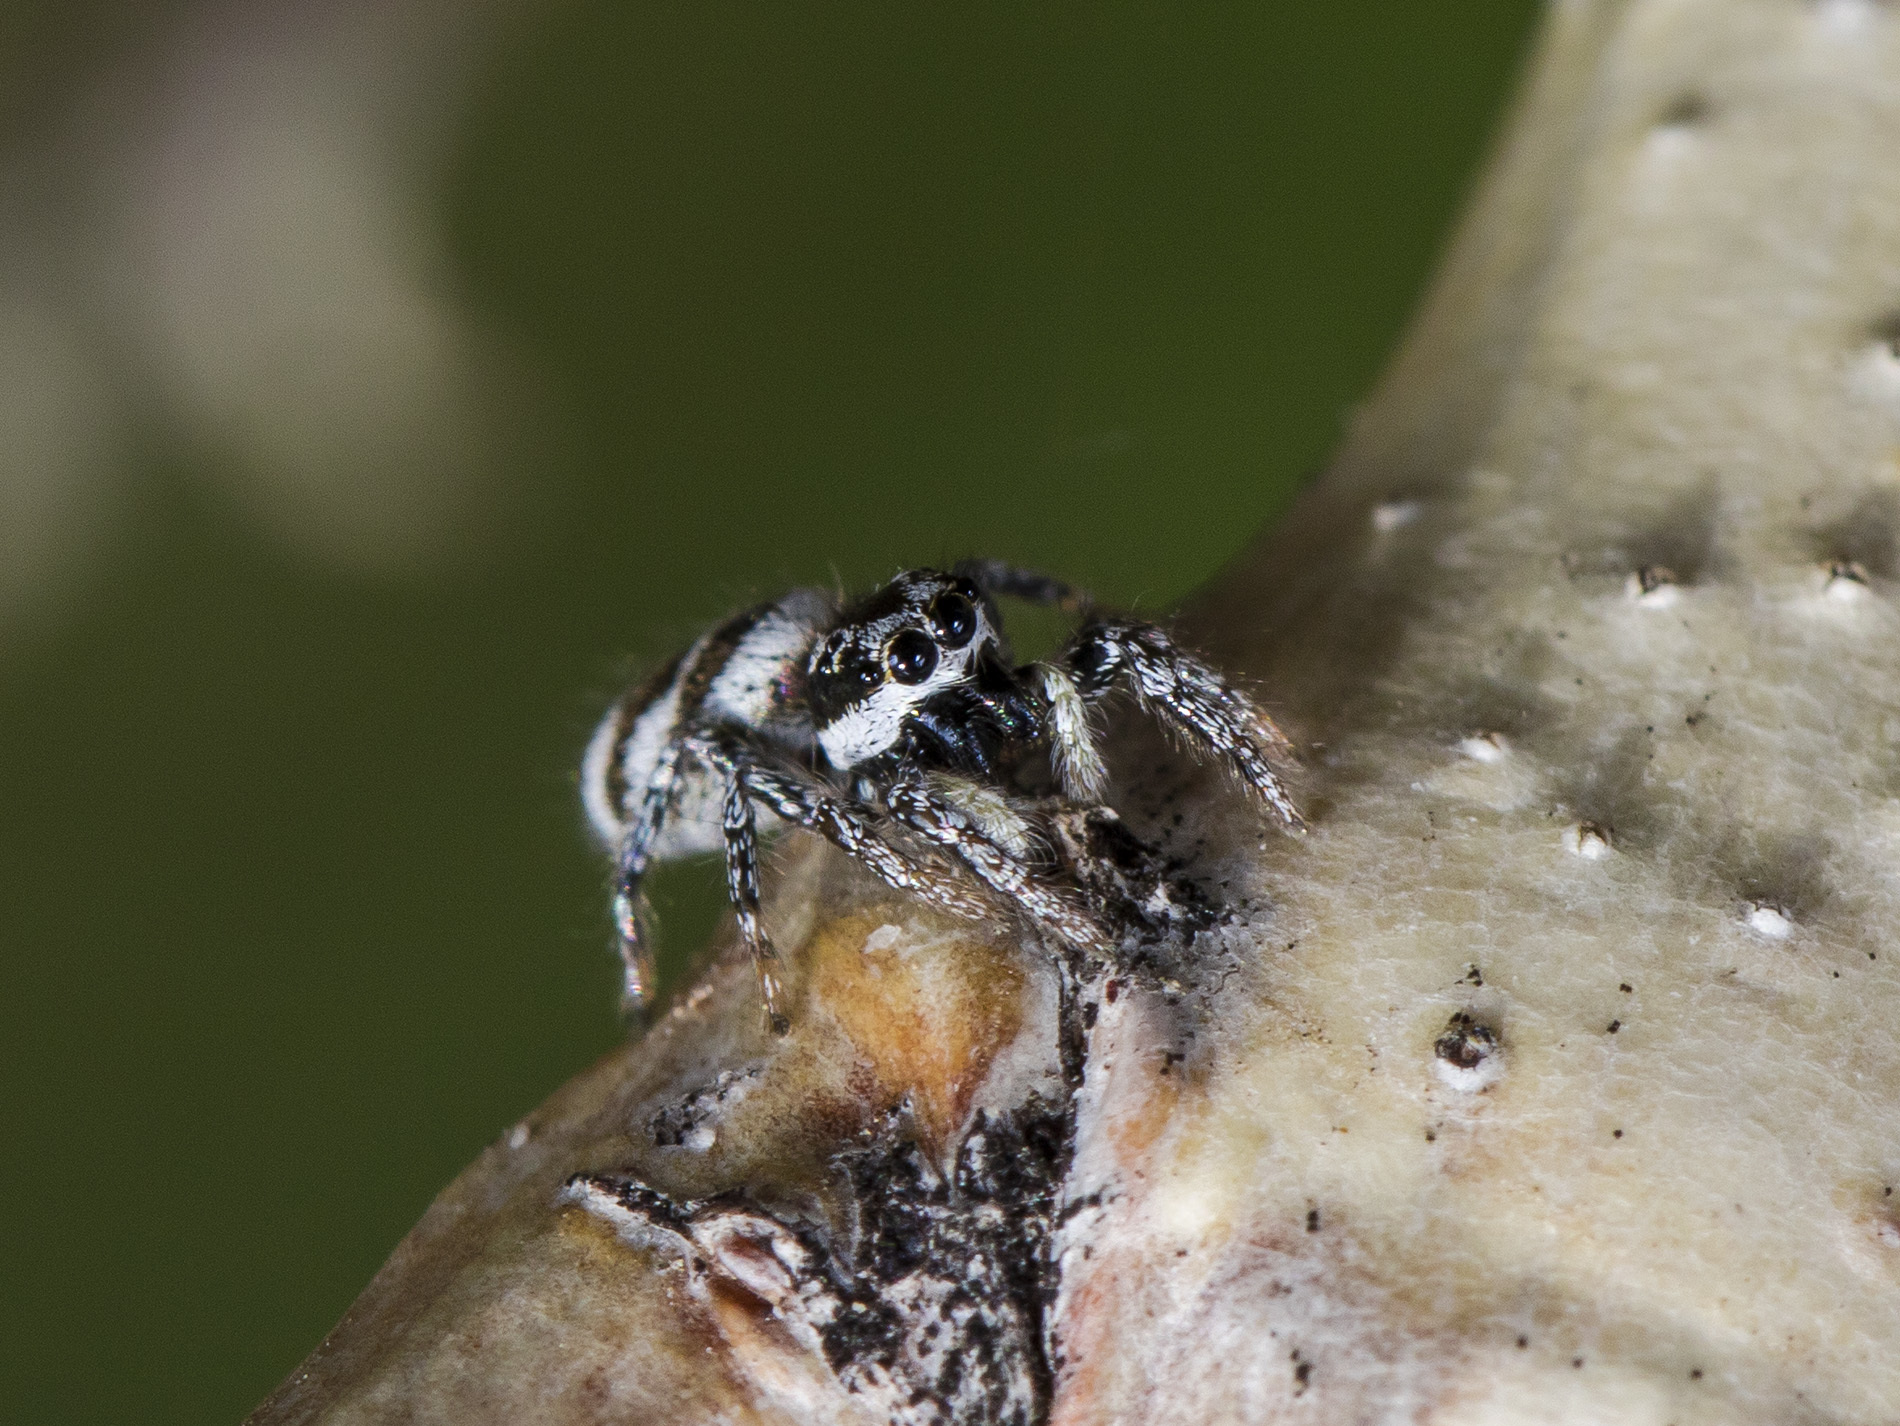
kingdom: Animalia
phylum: Arthropoda
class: Arachnida
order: Araneae
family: Salticidae
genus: Salticus
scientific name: Salticus tricinctus
